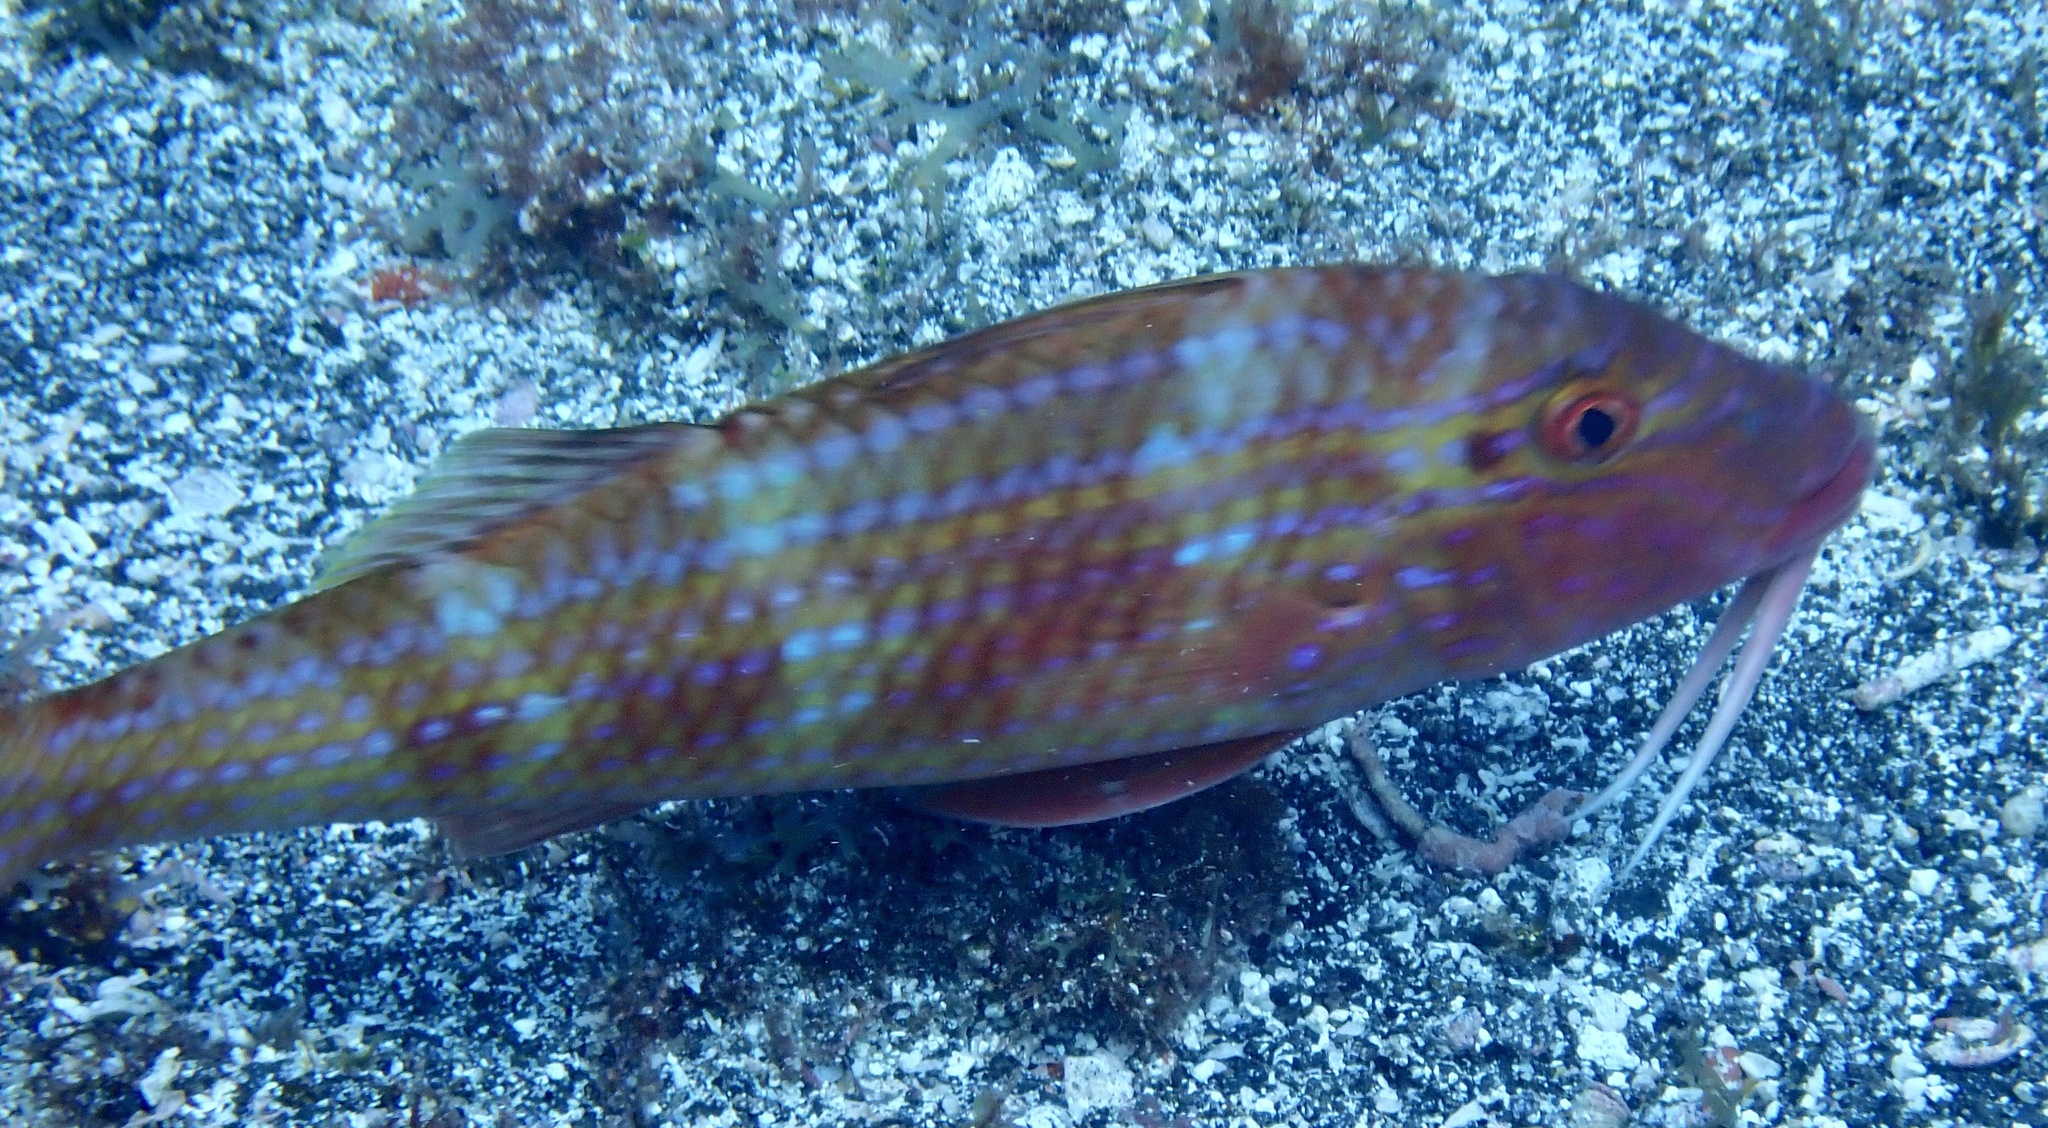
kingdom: Animalia
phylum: Chordata
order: Perciformes
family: Mullidae
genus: Pseudupeneus
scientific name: Pseudupeneus prayensis
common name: West african goatfish
